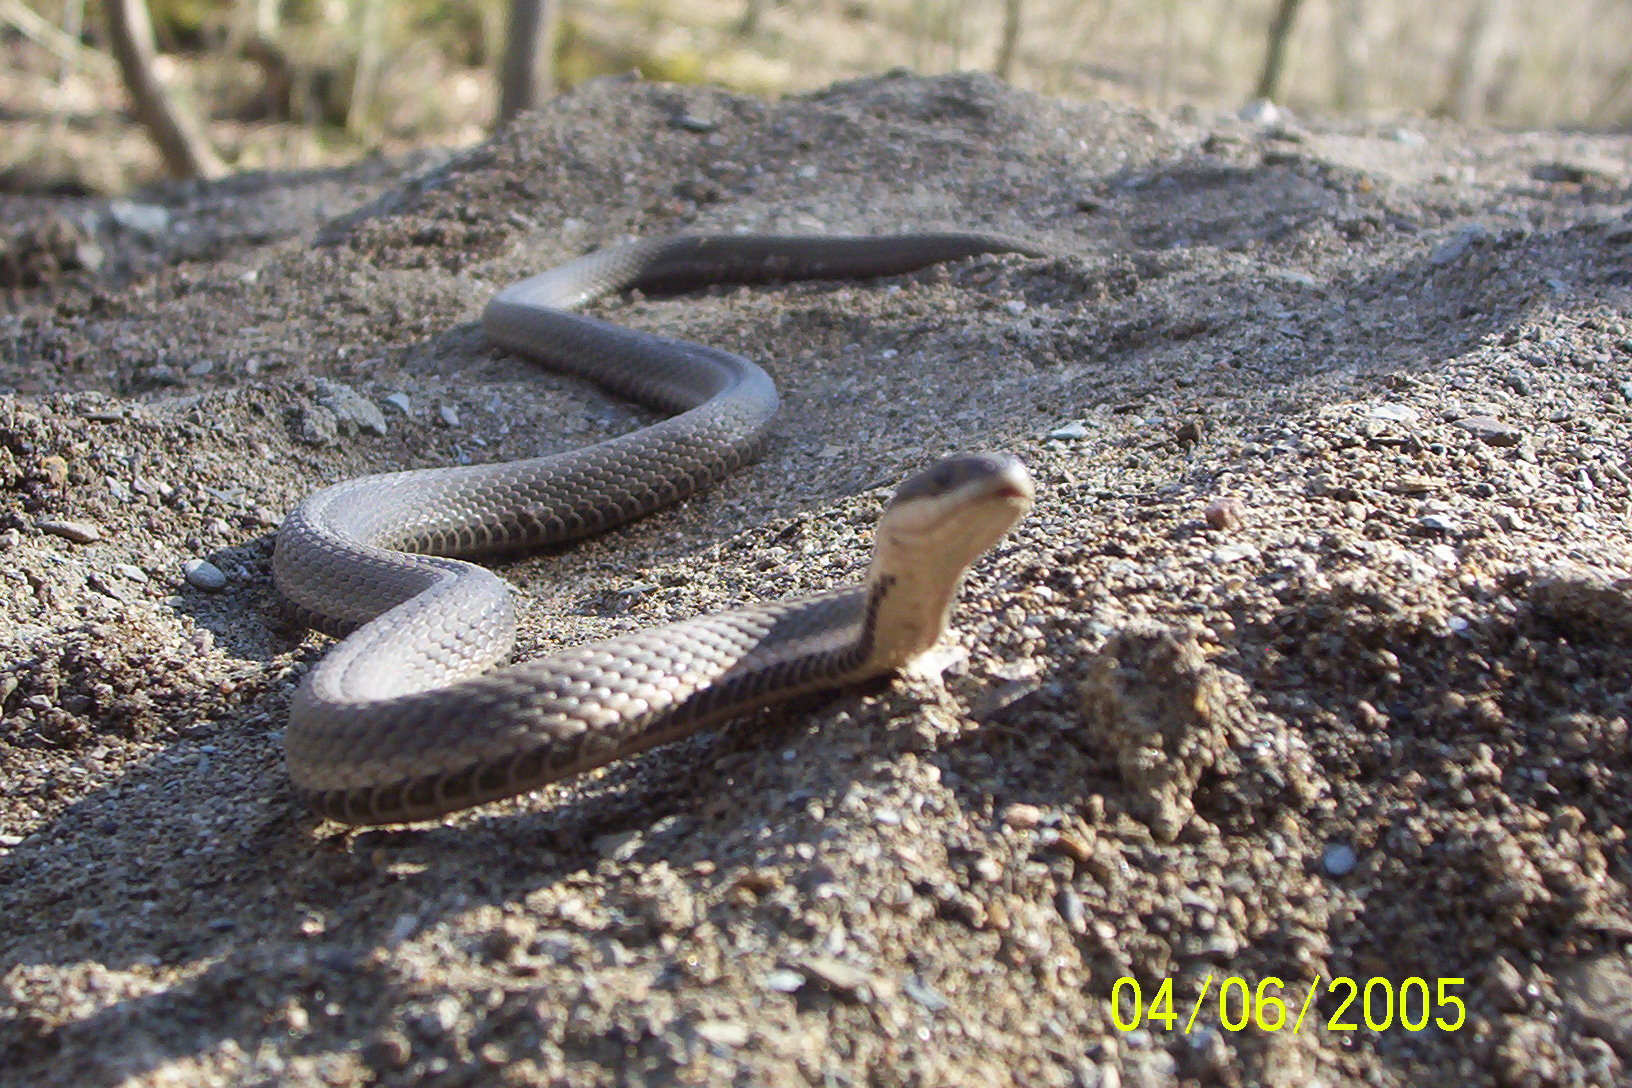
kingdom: Animalia
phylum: Chordata
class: Squamata
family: Colubridae
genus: Regina
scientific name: Regina septemvittata
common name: Queen snake
